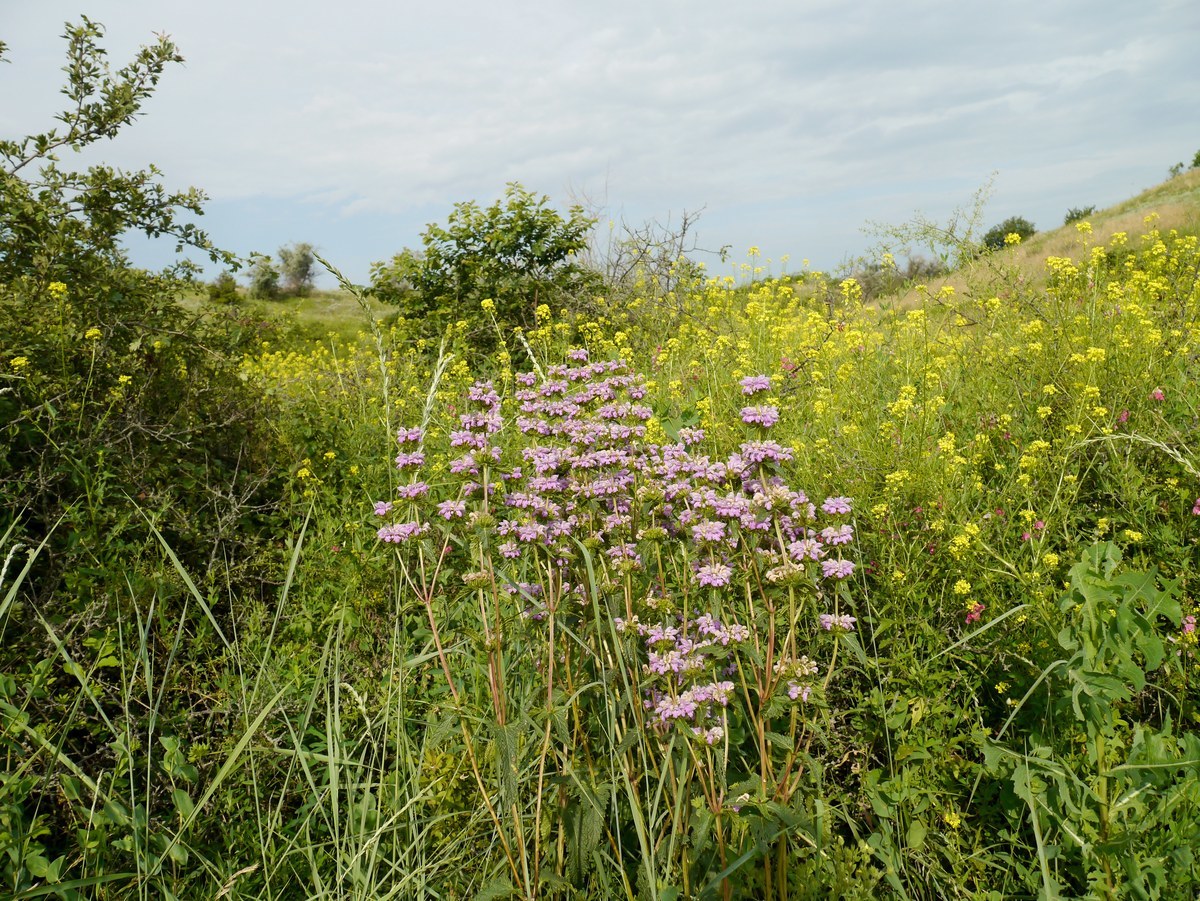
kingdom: Plantae
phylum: Tracheophyta
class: Magnoliopsida
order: Lamiales
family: Lamiaceae
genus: Phlomoides
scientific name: Phlomoides tuberosa
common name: Tuberous jerusalem sage
